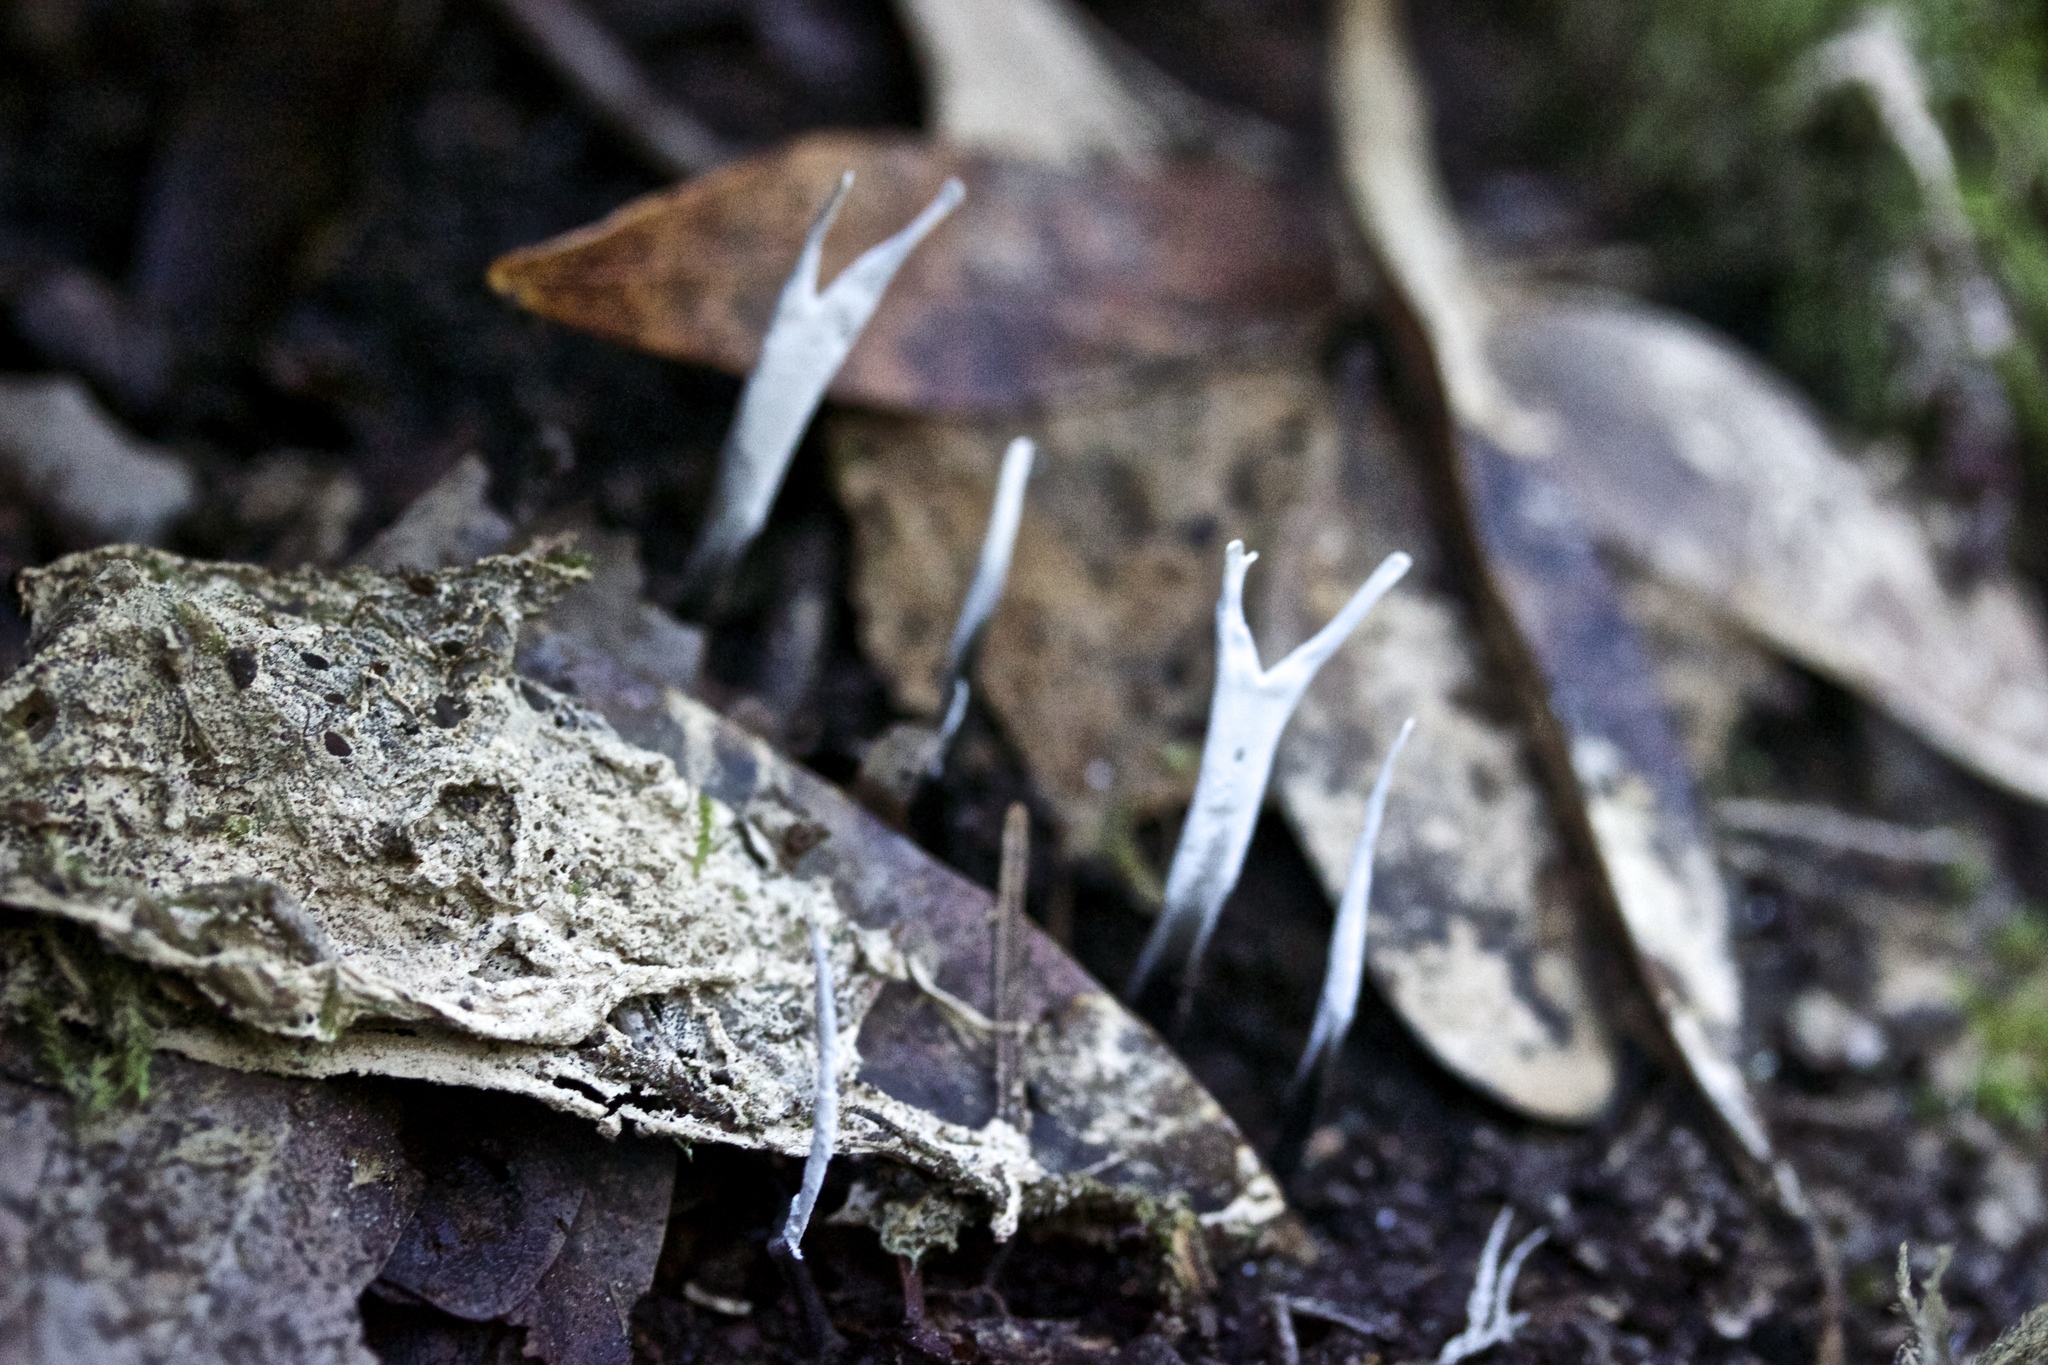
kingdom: Fungi
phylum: Ascomycota
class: Sordariomycetes
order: Xylariales
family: Xylariaceae
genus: Xylaria
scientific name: Xylaria hypoxylon
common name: Candle-snuff fungus
